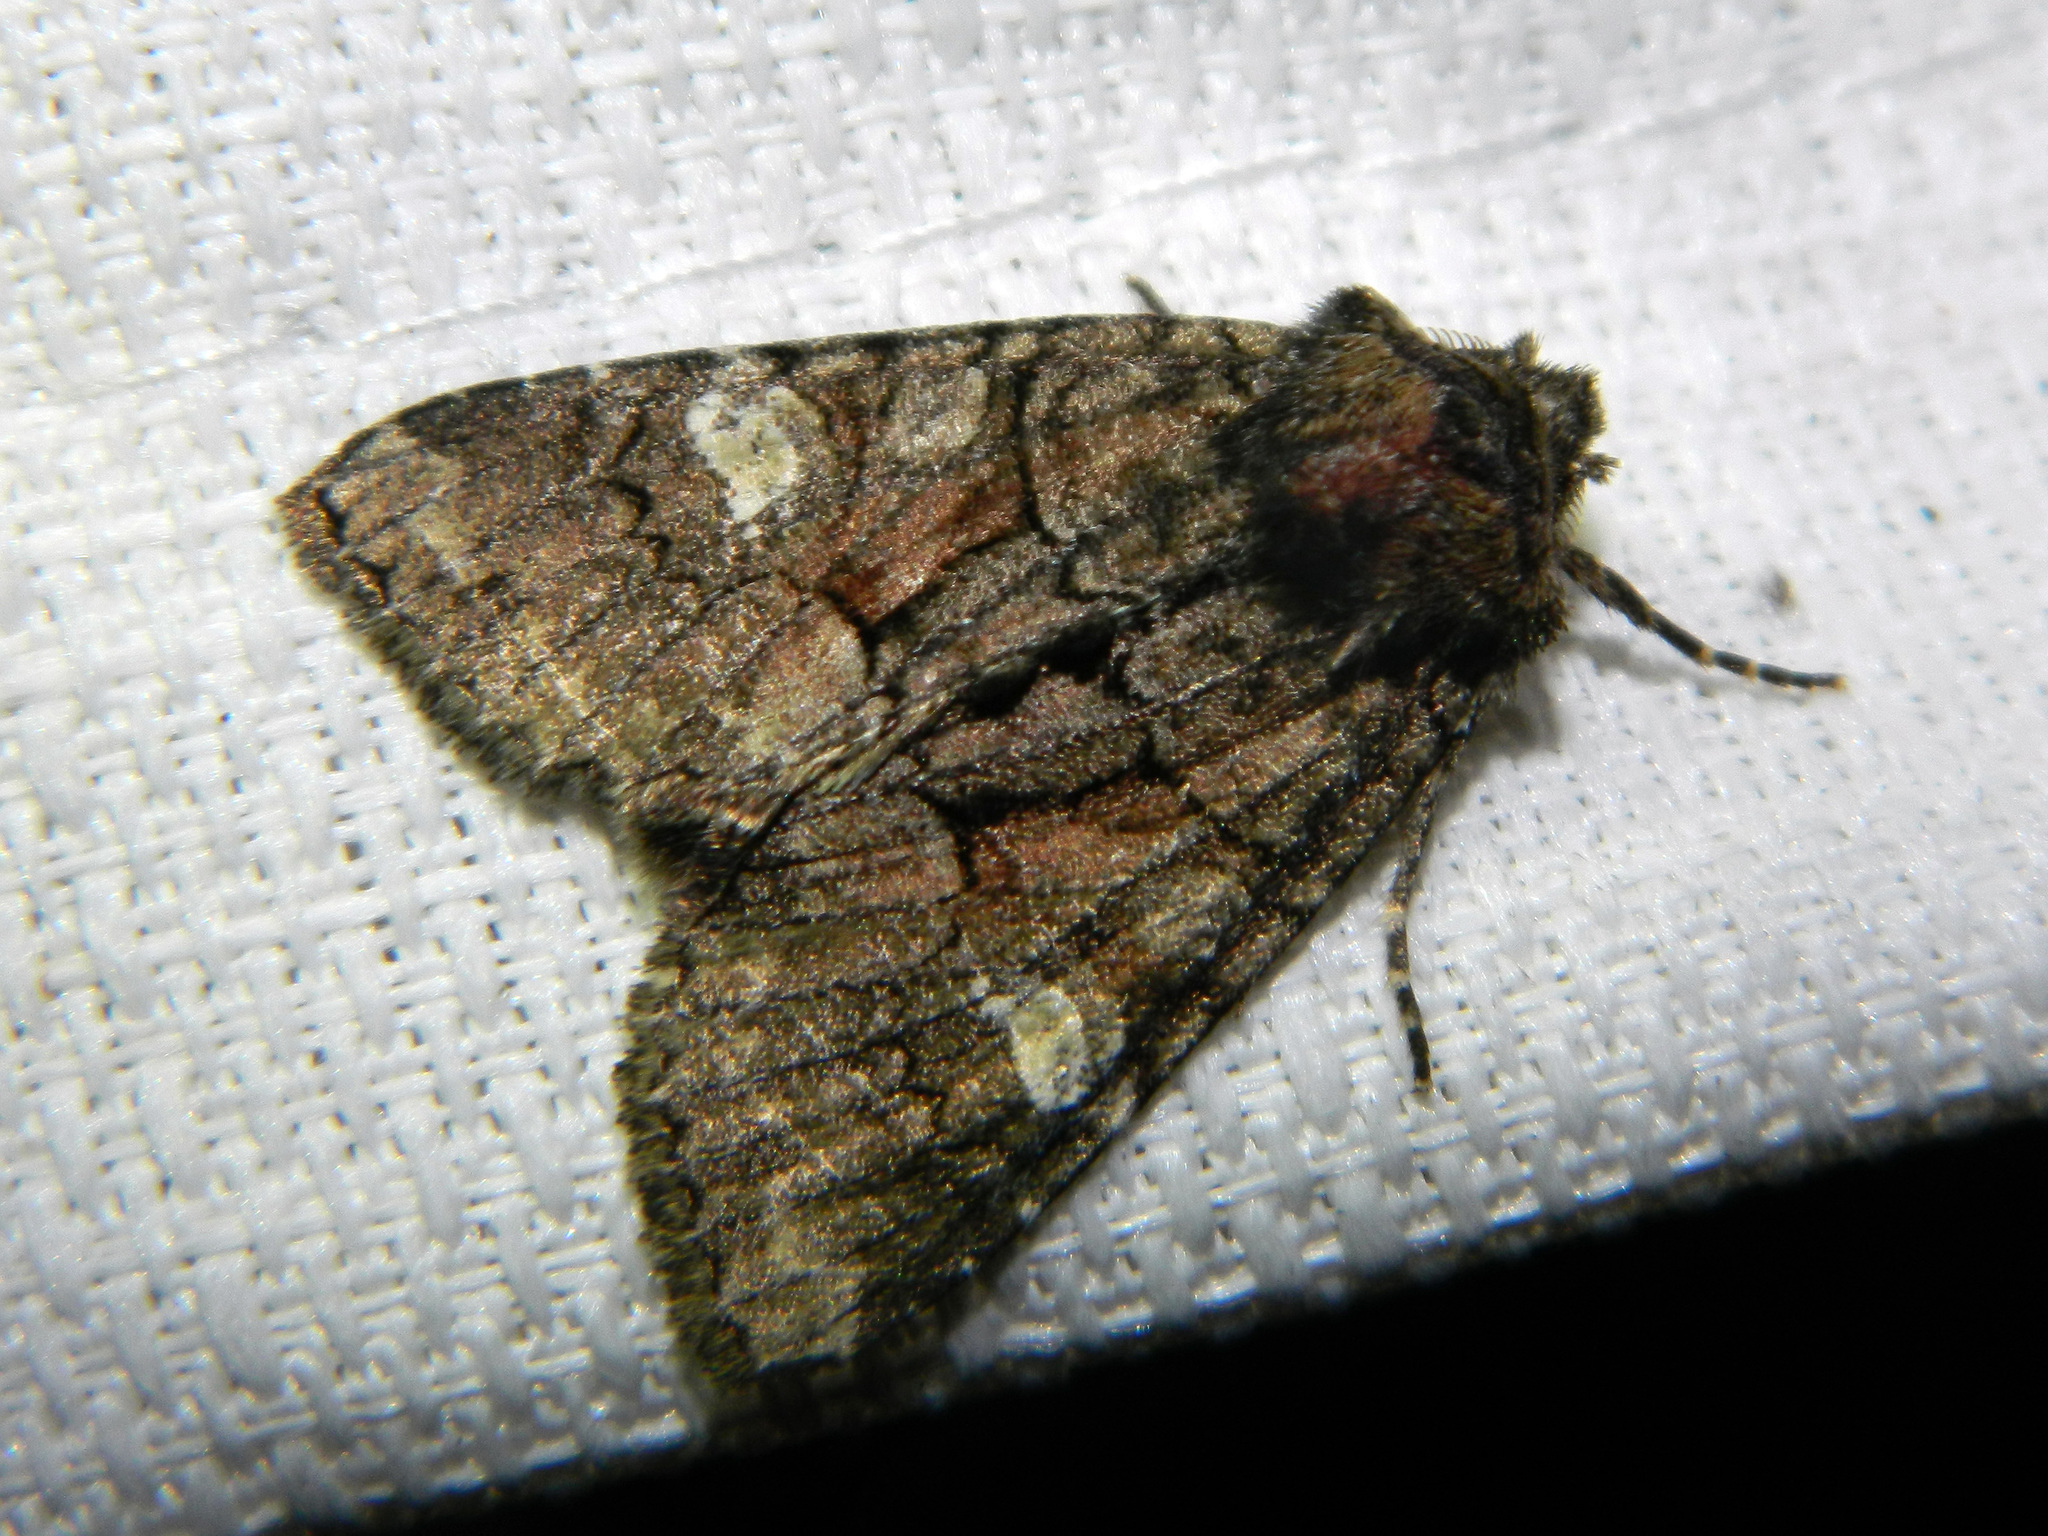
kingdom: Animalia
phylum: Arthropoda
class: Insecta
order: Lepidoptera
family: Noctuidae
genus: Fishia
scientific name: Fishia illocata
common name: Wandering brocade moth
